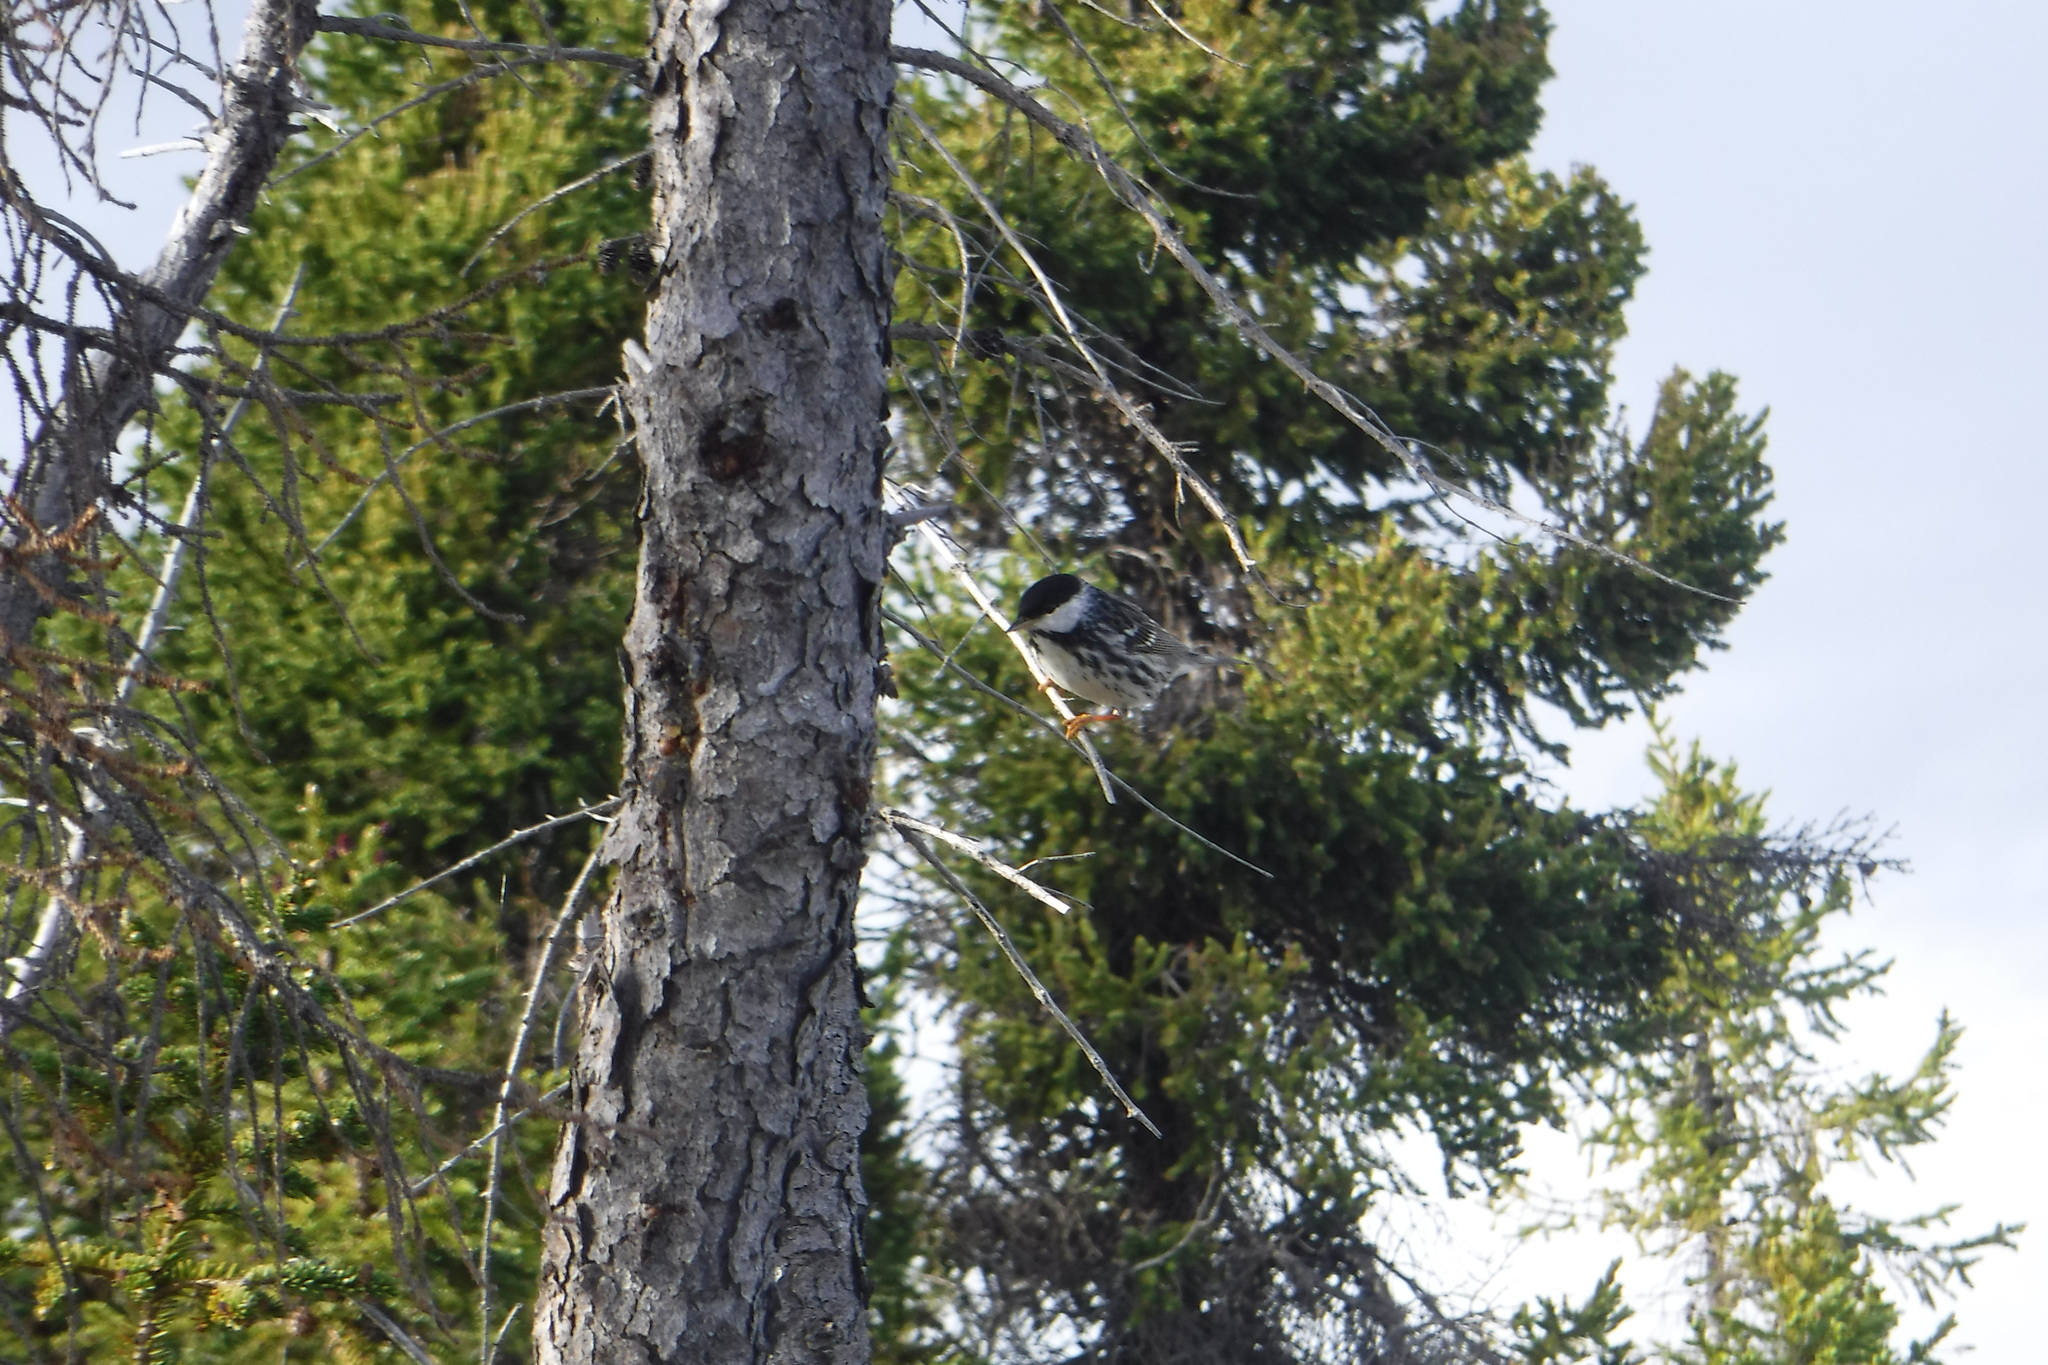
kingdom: Animalia
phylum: Chordata
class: Aves
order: Passeriformes
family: Parulidae
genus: Setophaga
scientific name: Setophaga striata
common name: Blackpoll warbler
